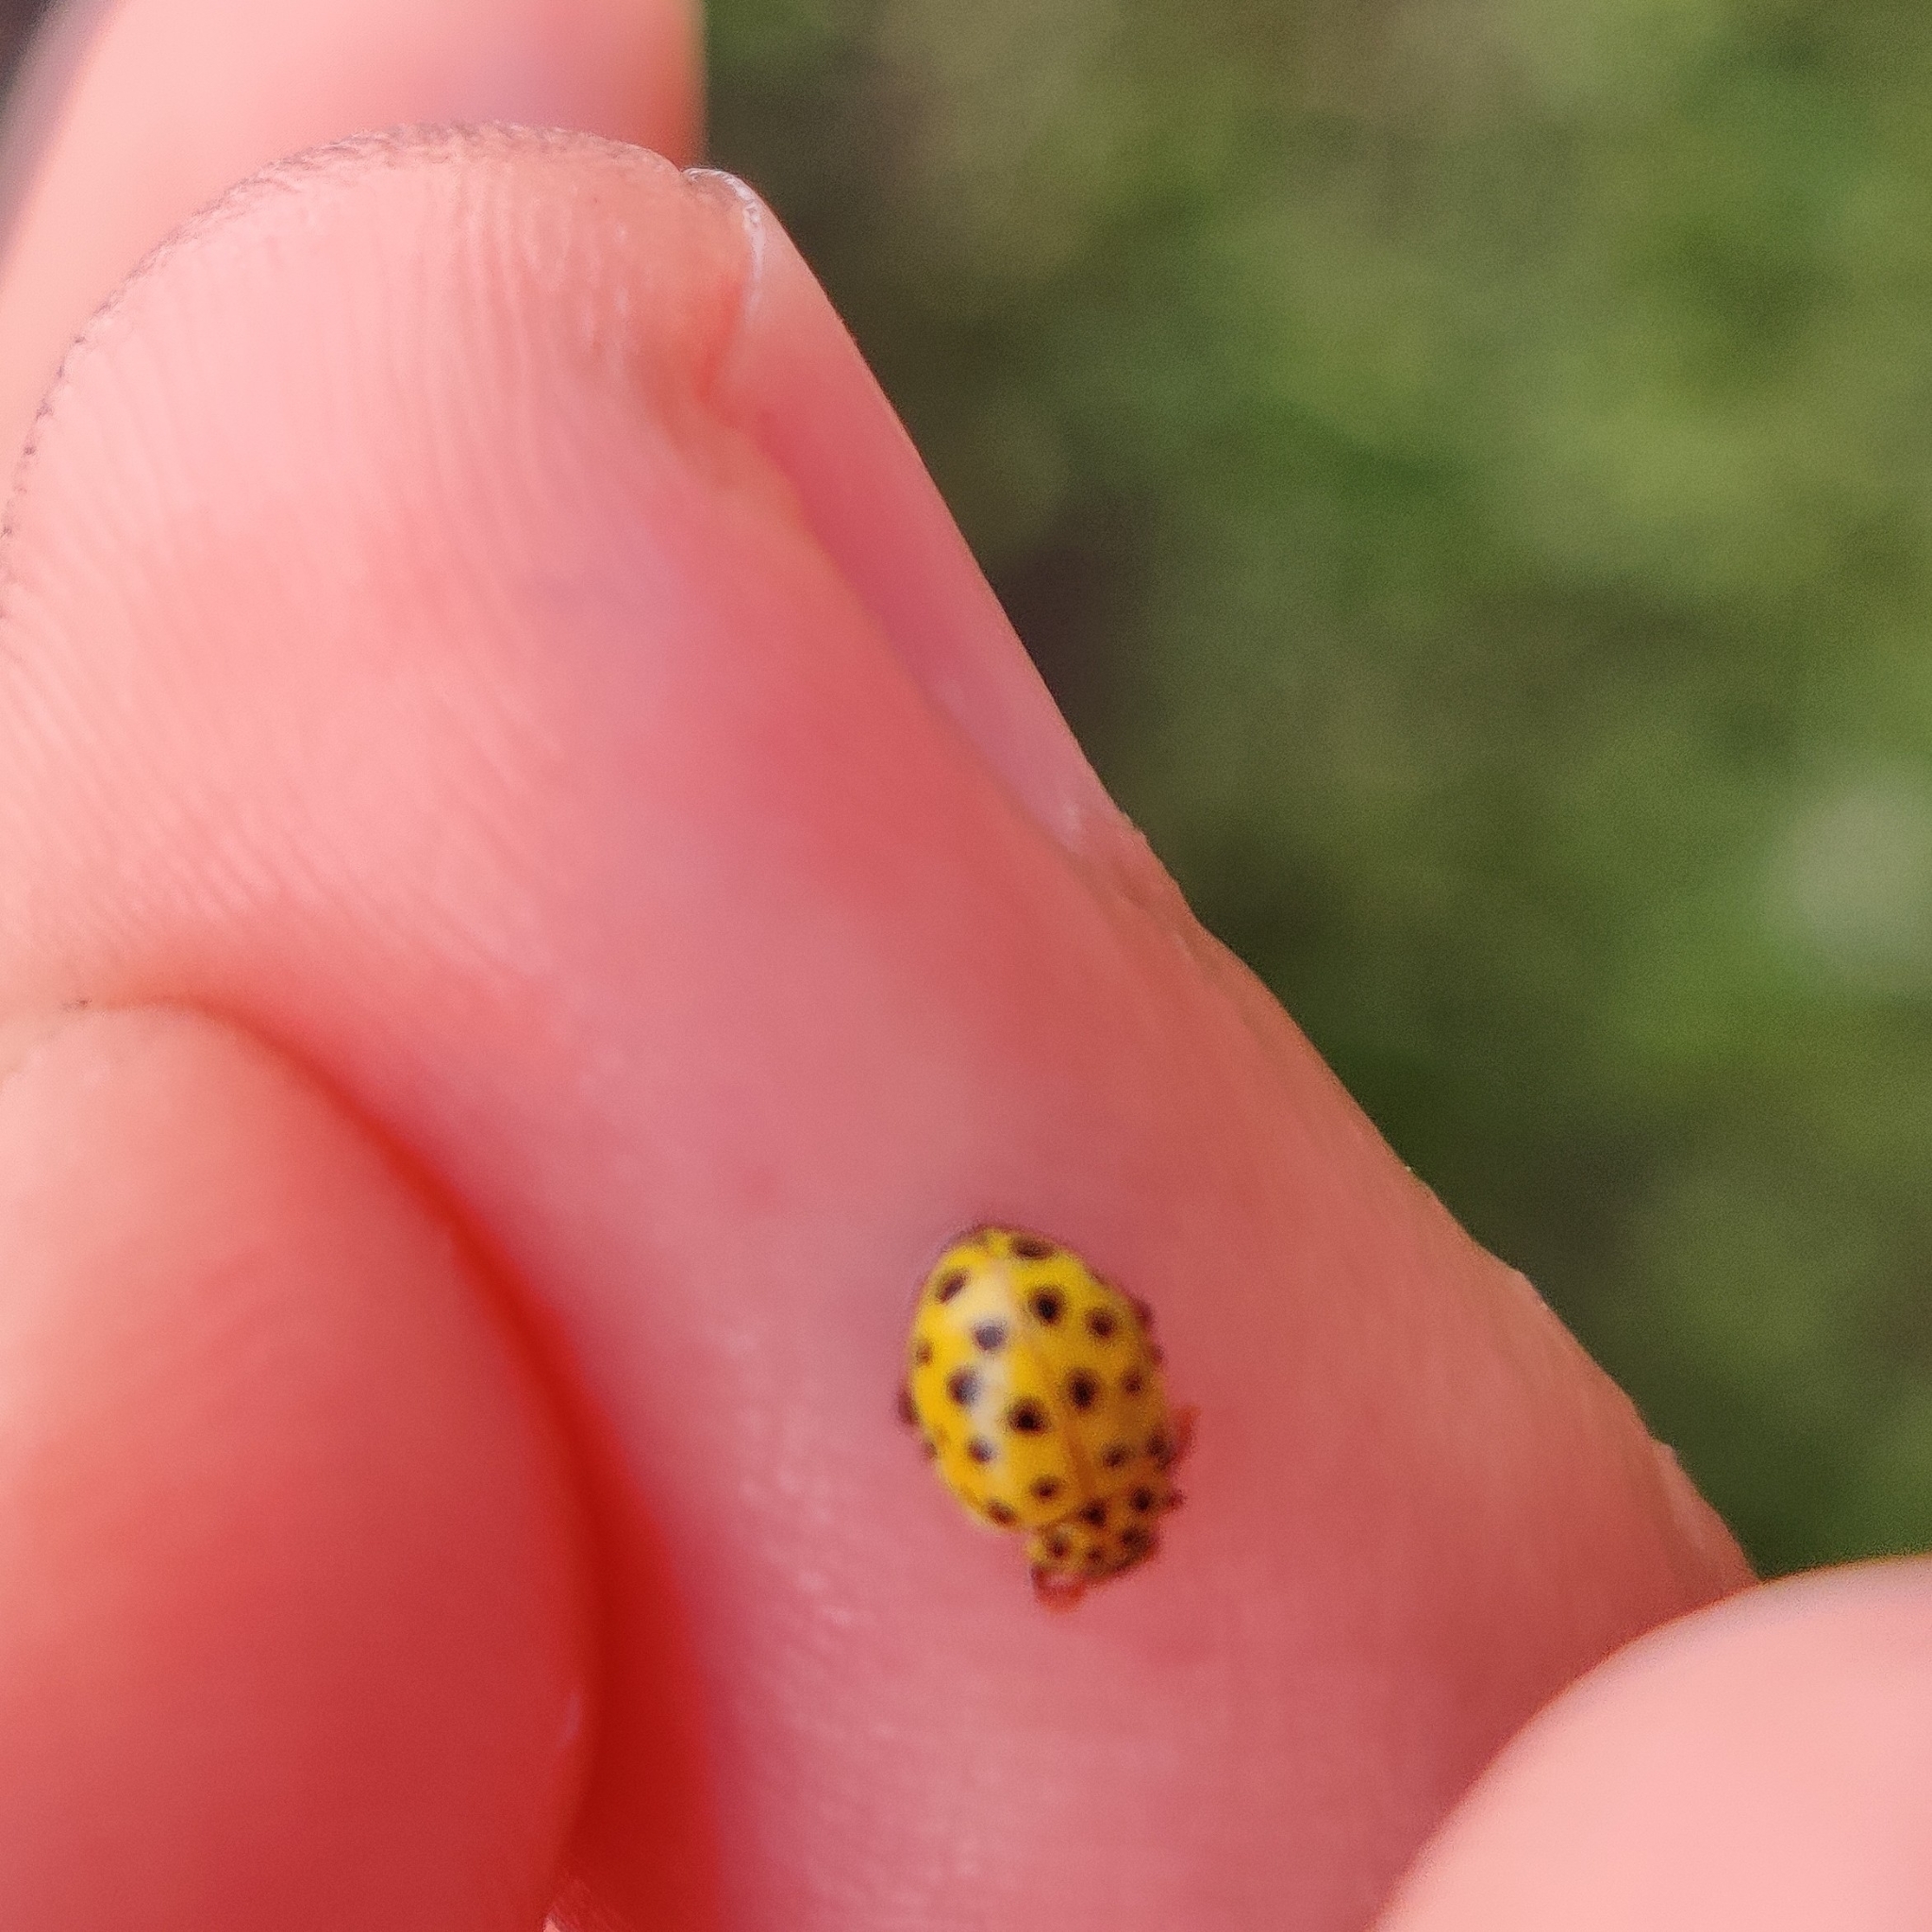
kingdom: Animalia
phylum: Arthropoda
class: Insecta
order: Coleoptera
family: Coccinellidae
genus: Psyllobora
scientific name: Psyllobora vigintiduopunctata
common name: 22-spot ladybird
